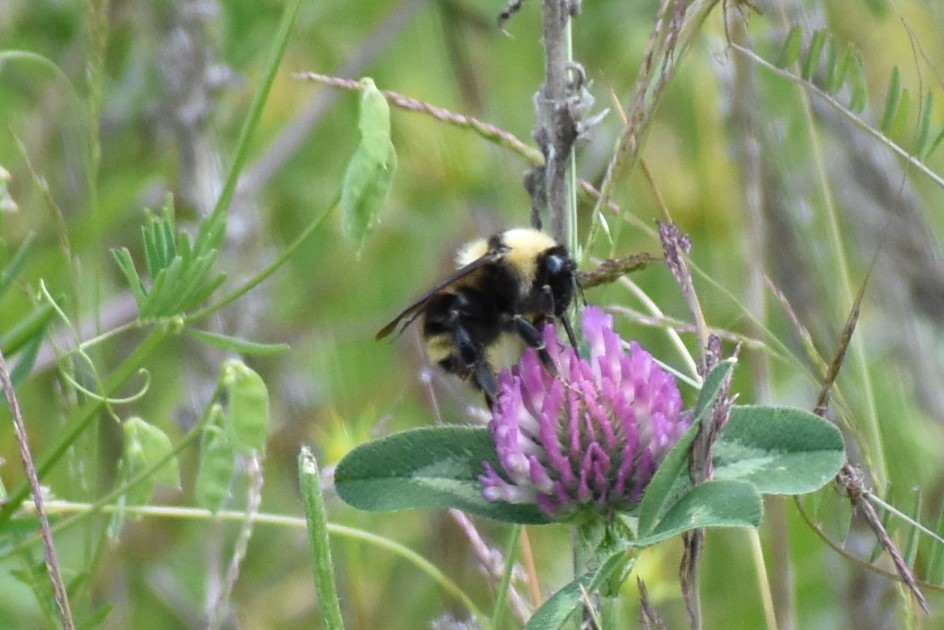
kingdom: Animalia
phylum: Arthropoda
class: Insecta
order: Hymenoptera
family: Apidae
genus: Bombus
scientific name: Bombus californicus
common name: California bumble bee
